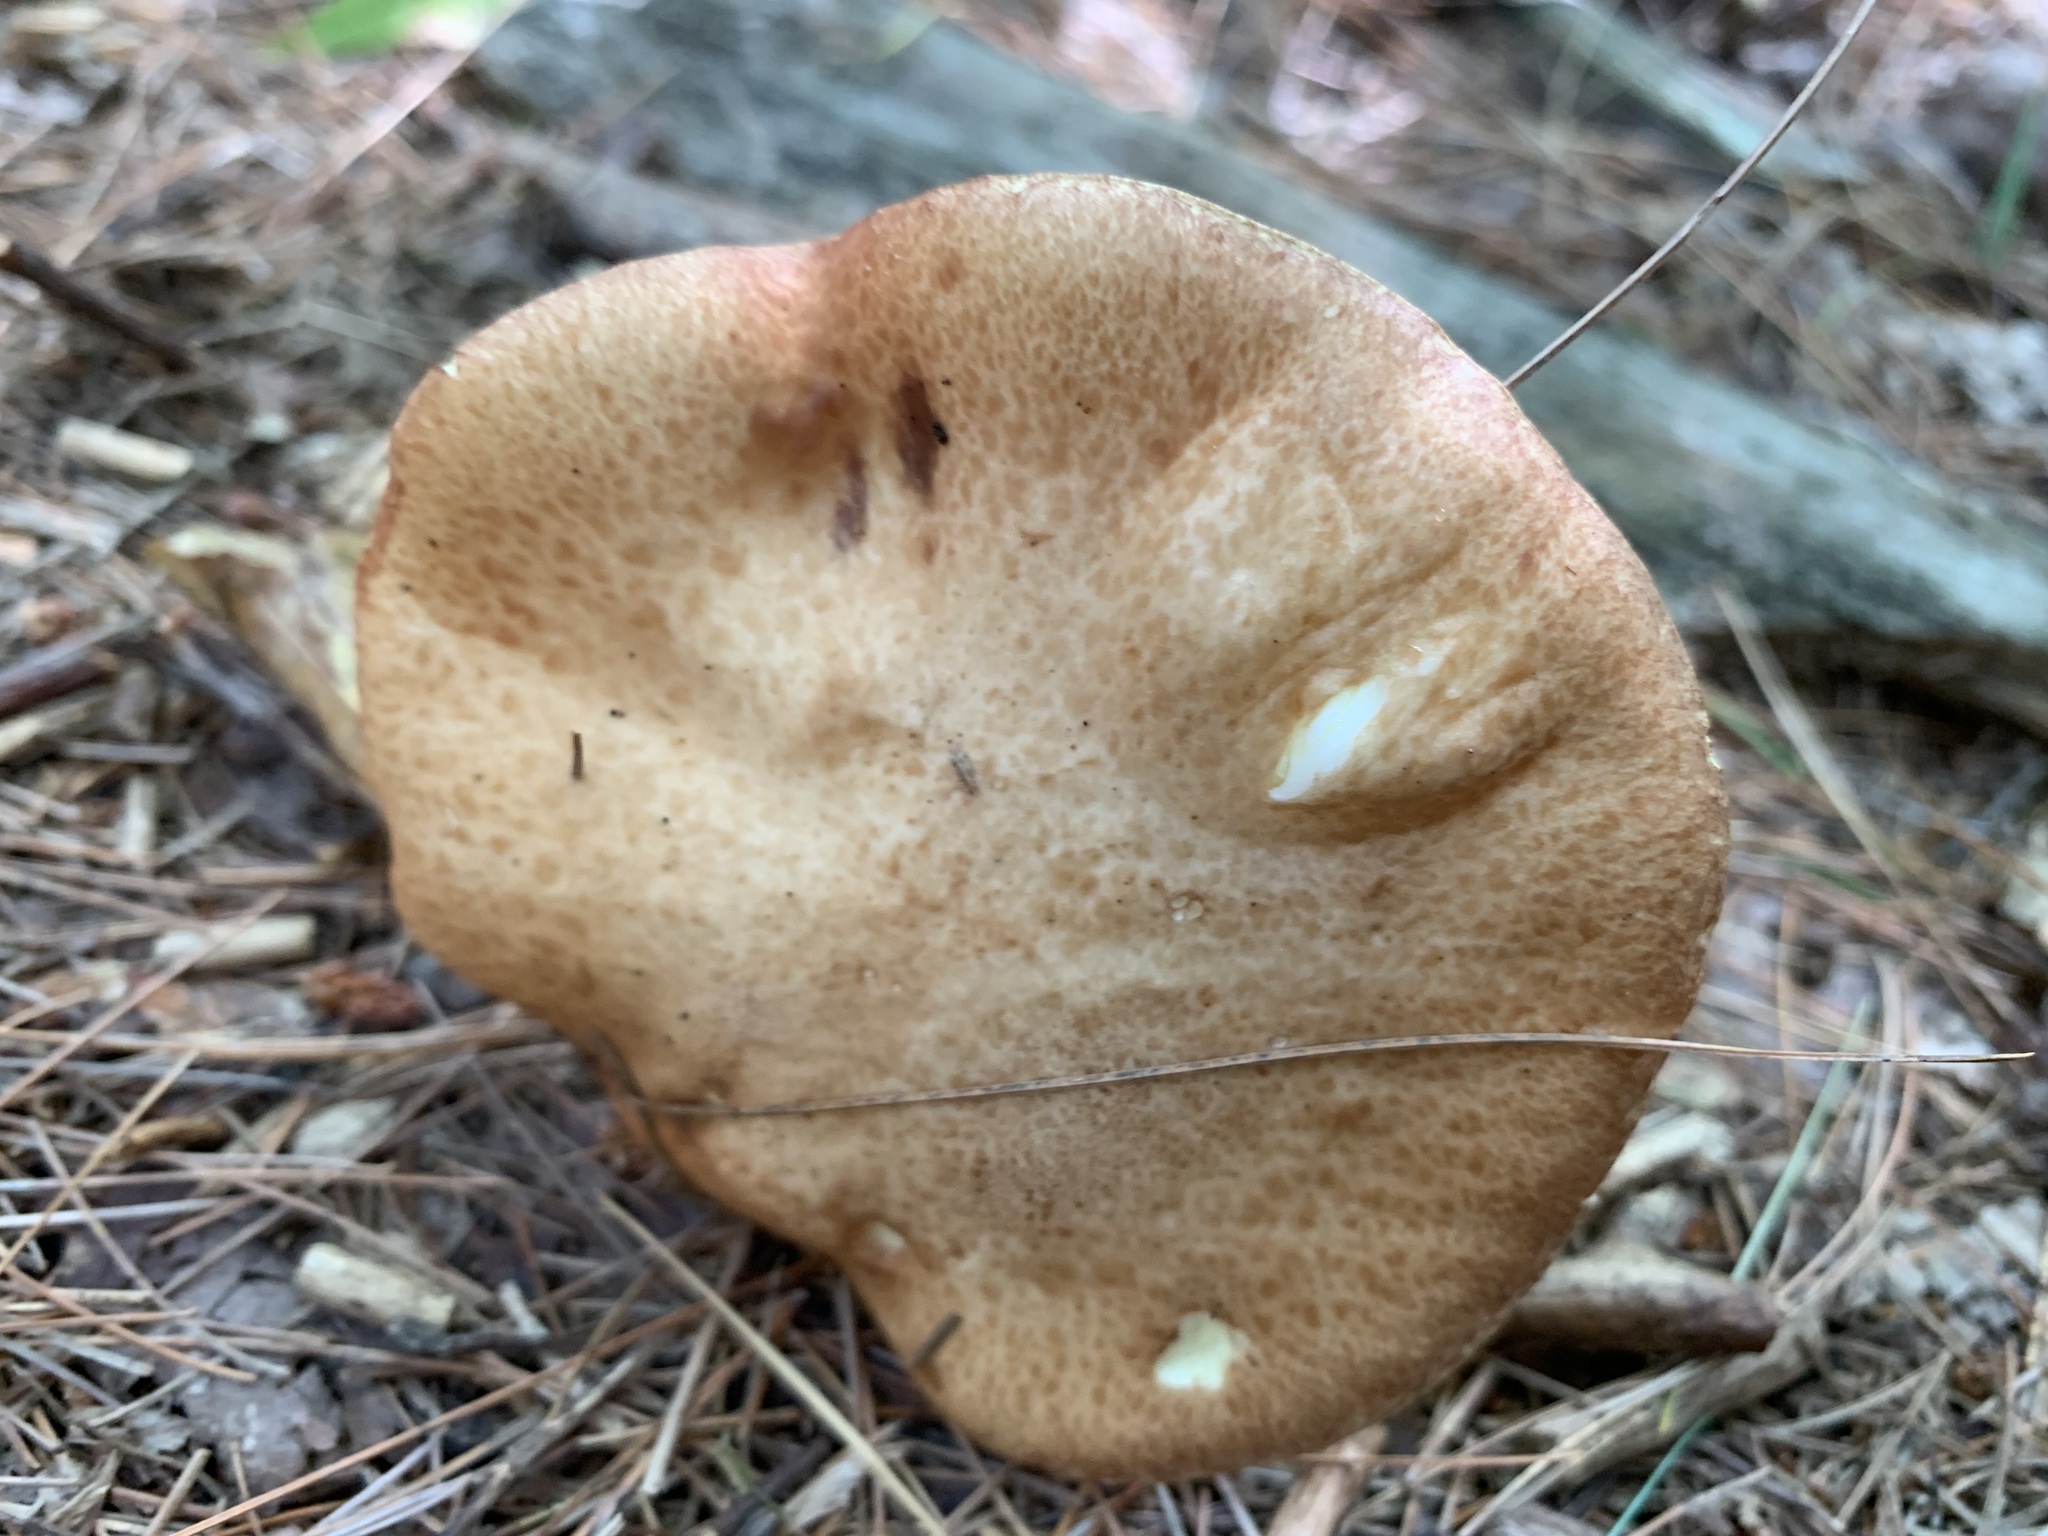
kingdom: Fungi
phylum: Basidiomycota
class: Agaricomycetes
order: Boletales
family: Suillaceae
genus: Fuscoboletinus
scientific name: Fuscoboletinus weaverae
